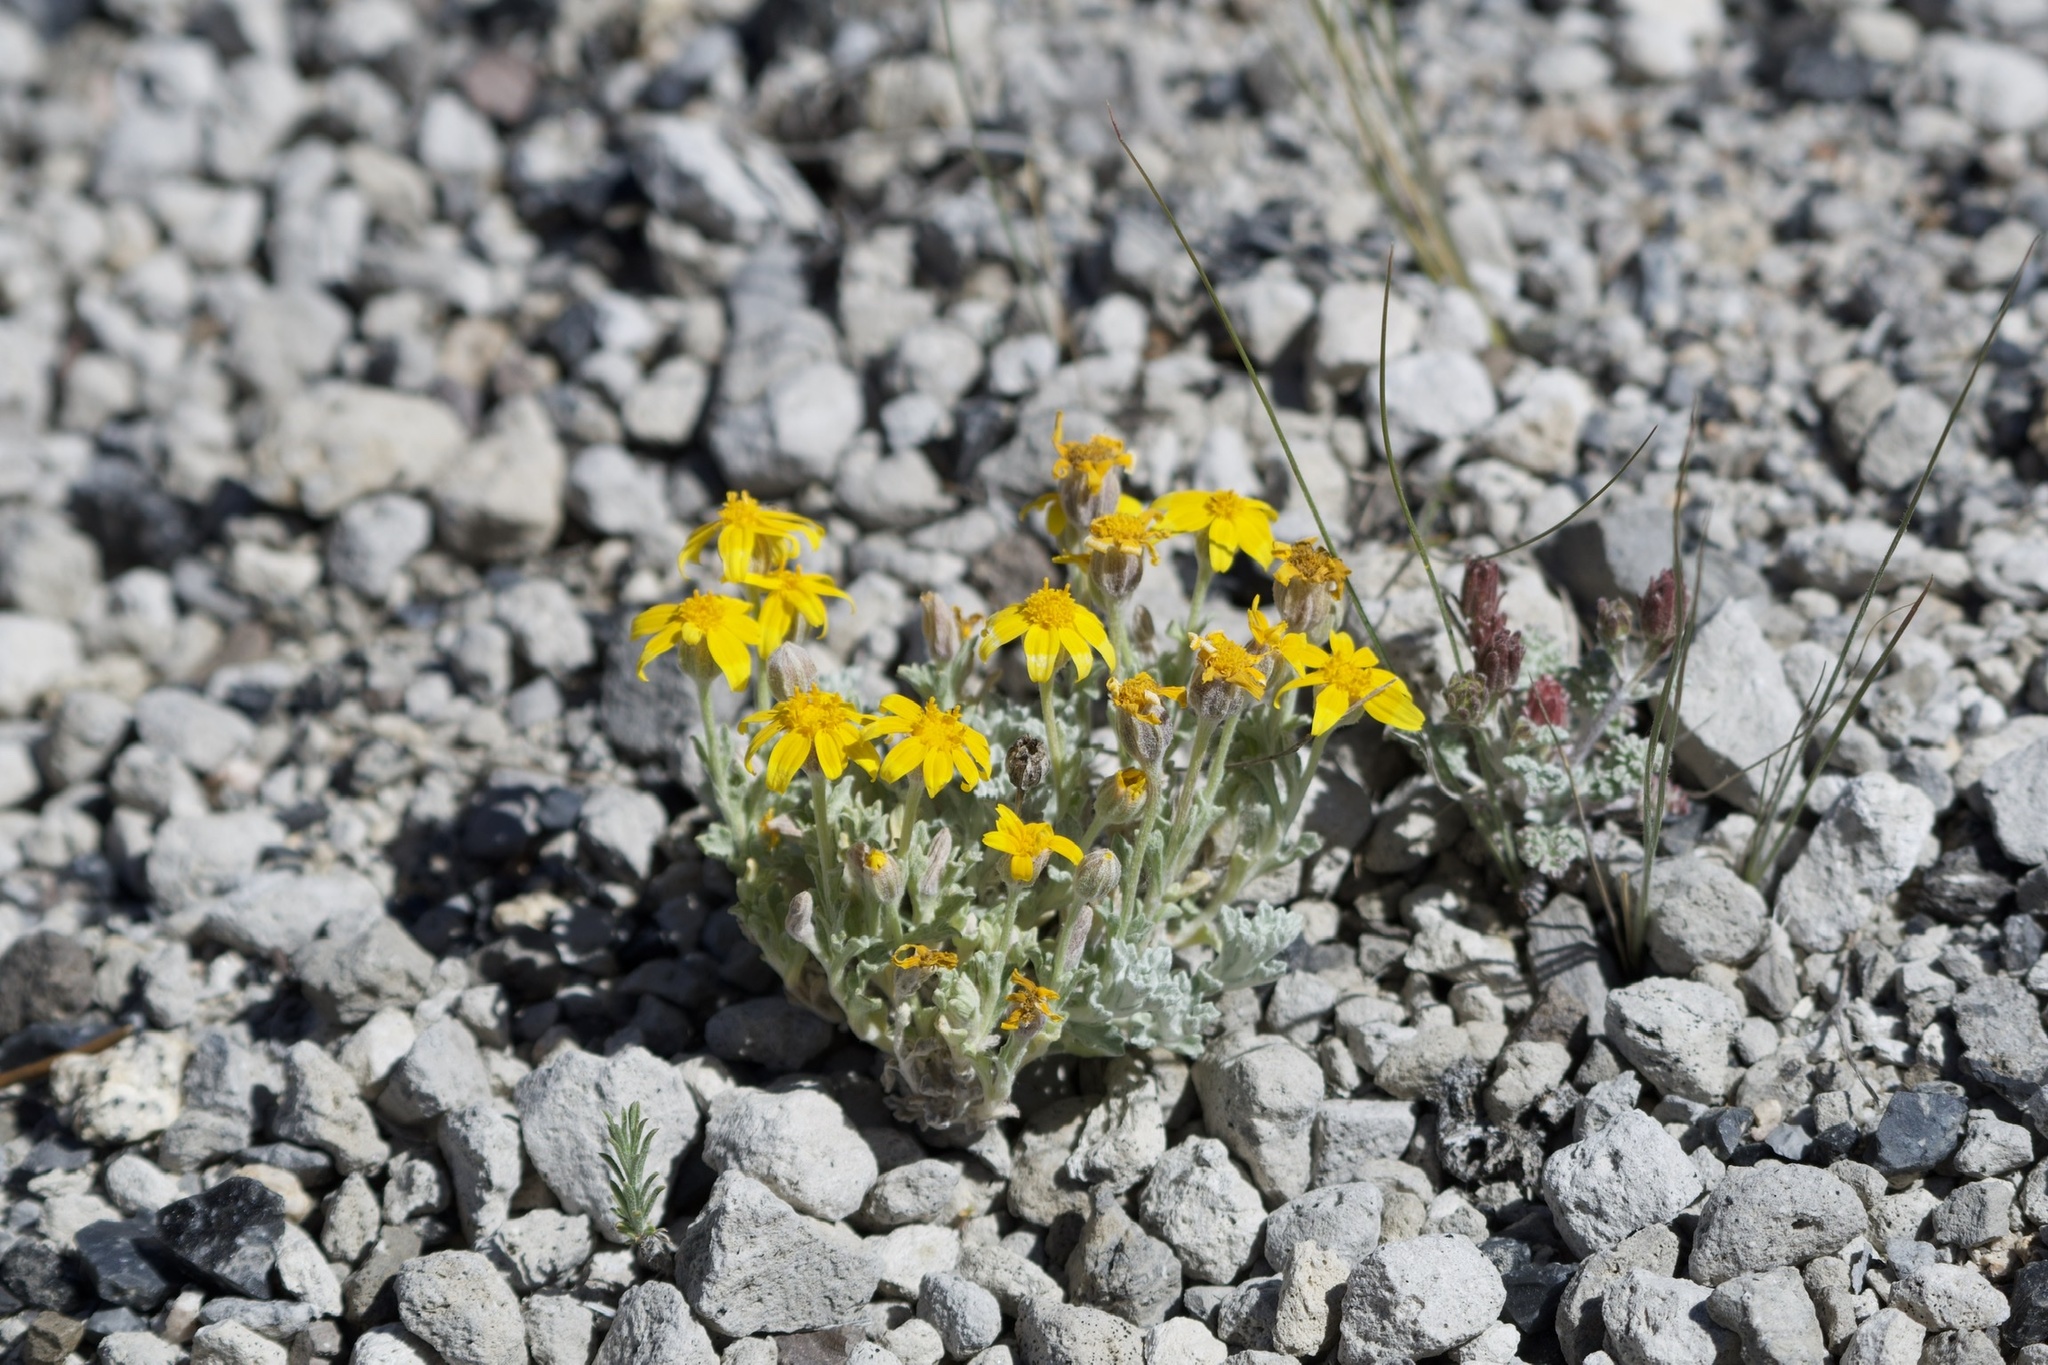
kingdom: Plantae
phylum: Tracheophyta
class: Magnoliopsida
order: Asterales
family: Asteraceae
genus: Eriophyllum
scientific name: Eriophyllum lanatum
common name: Common woolly-sunflower
